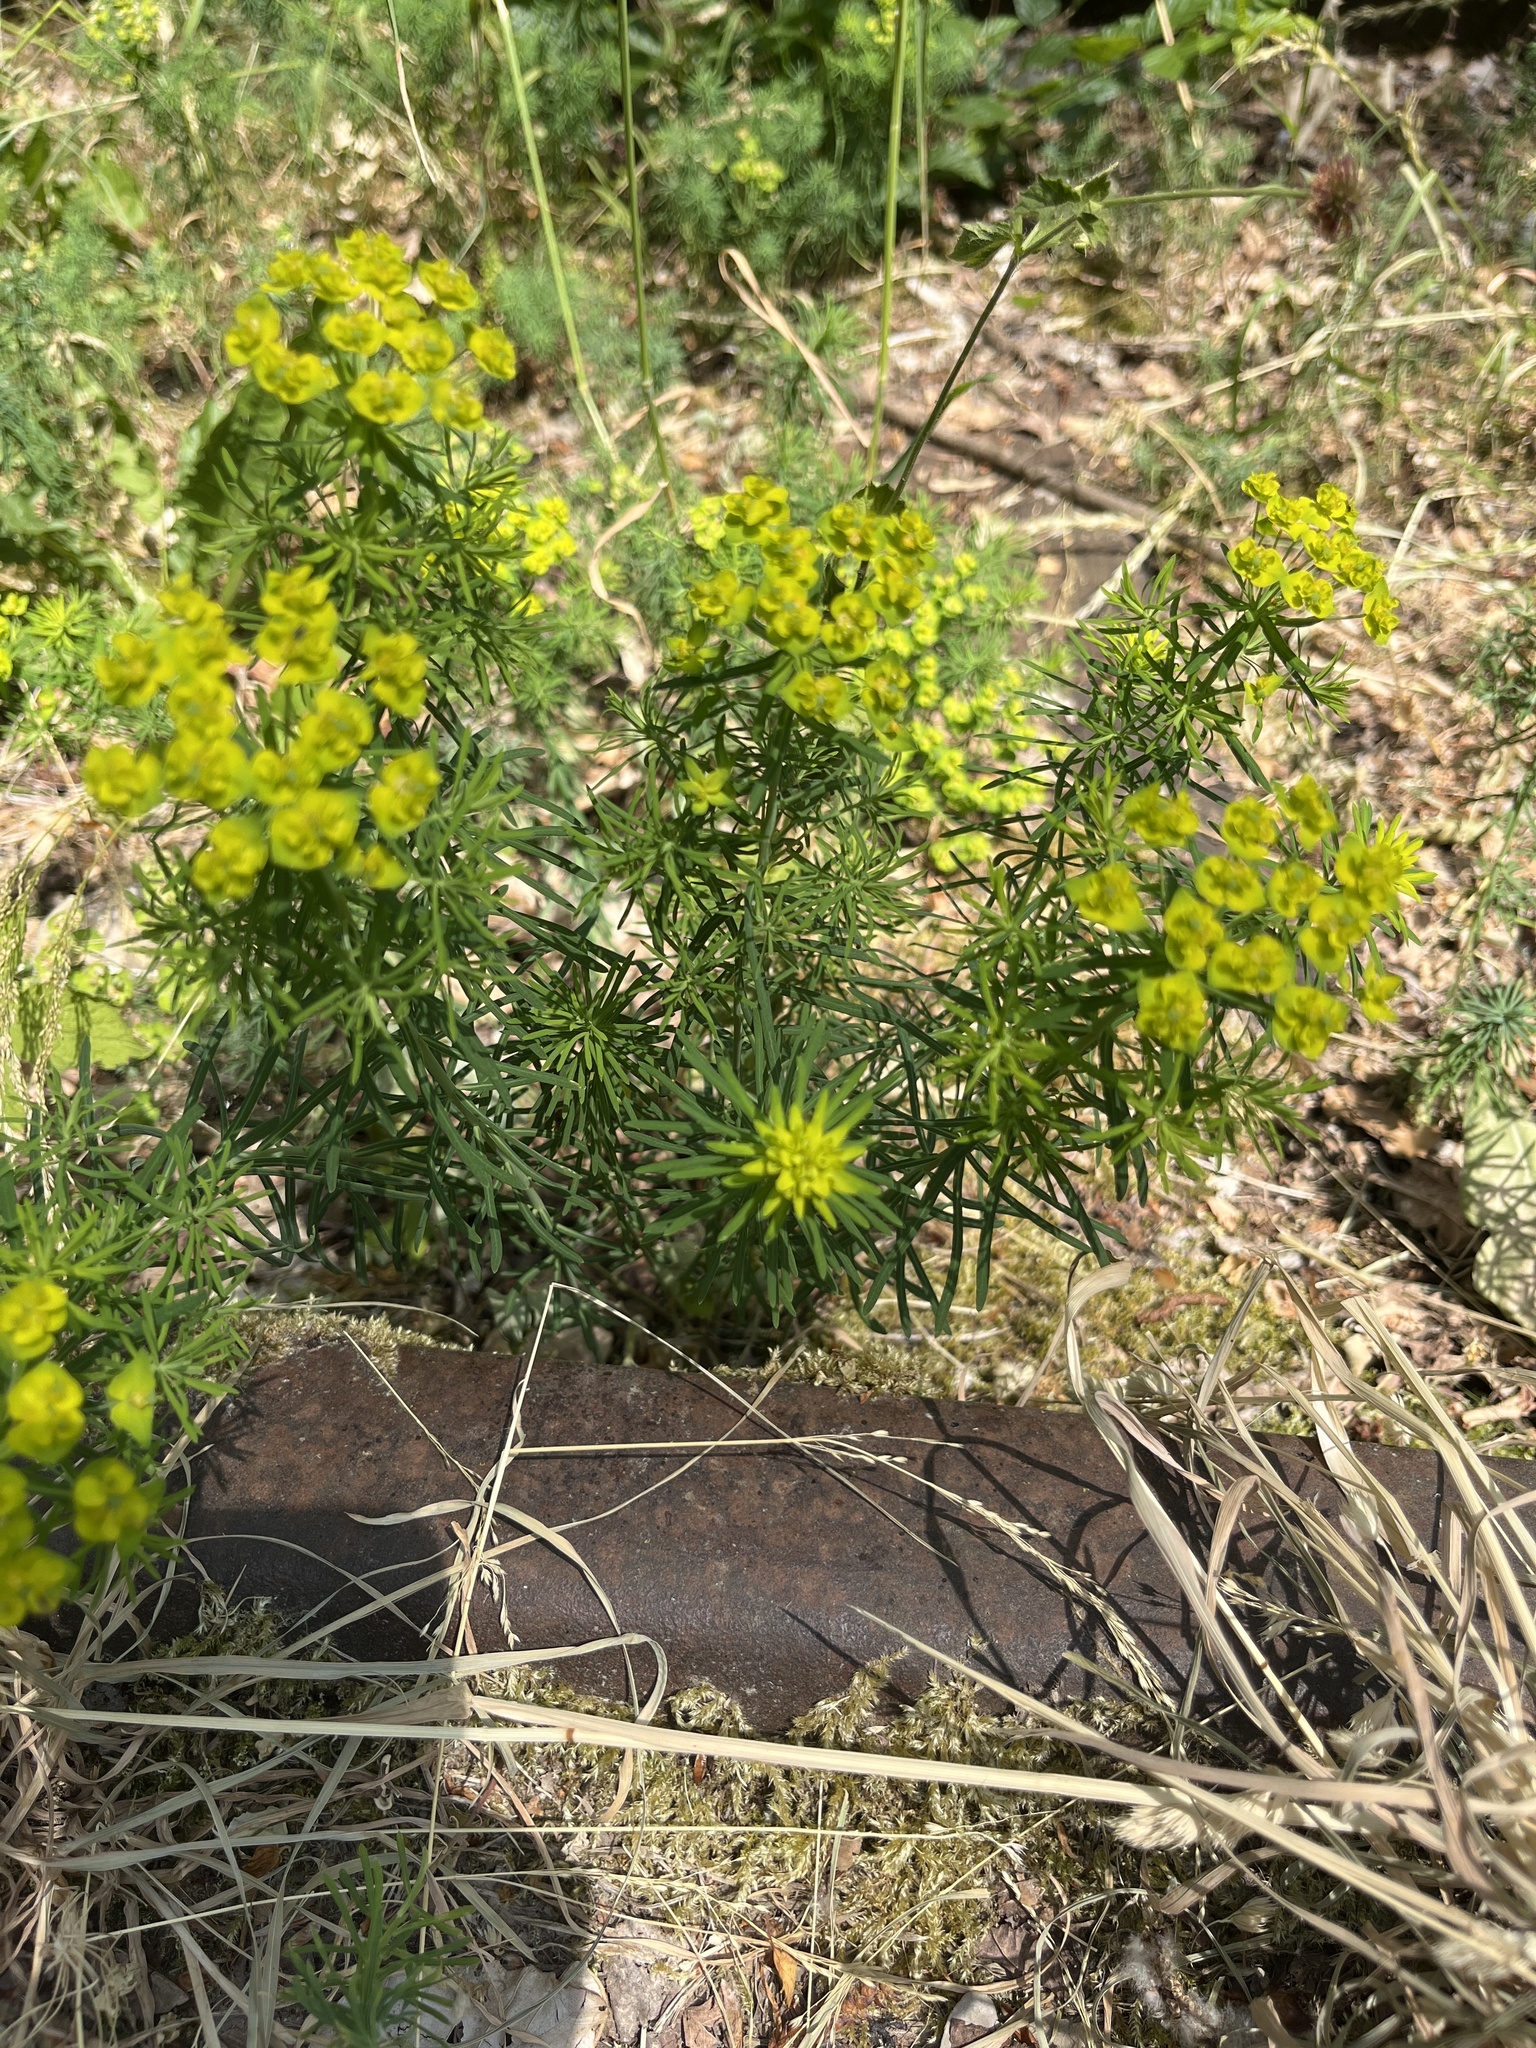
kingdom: Plantae
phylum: Tracheophyta
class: Magnoliopsida
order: Malpighiales
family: Euphorbiaceae
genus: Euphorbia
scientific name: Euphorbia cyparissias
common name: Cypress spurge
